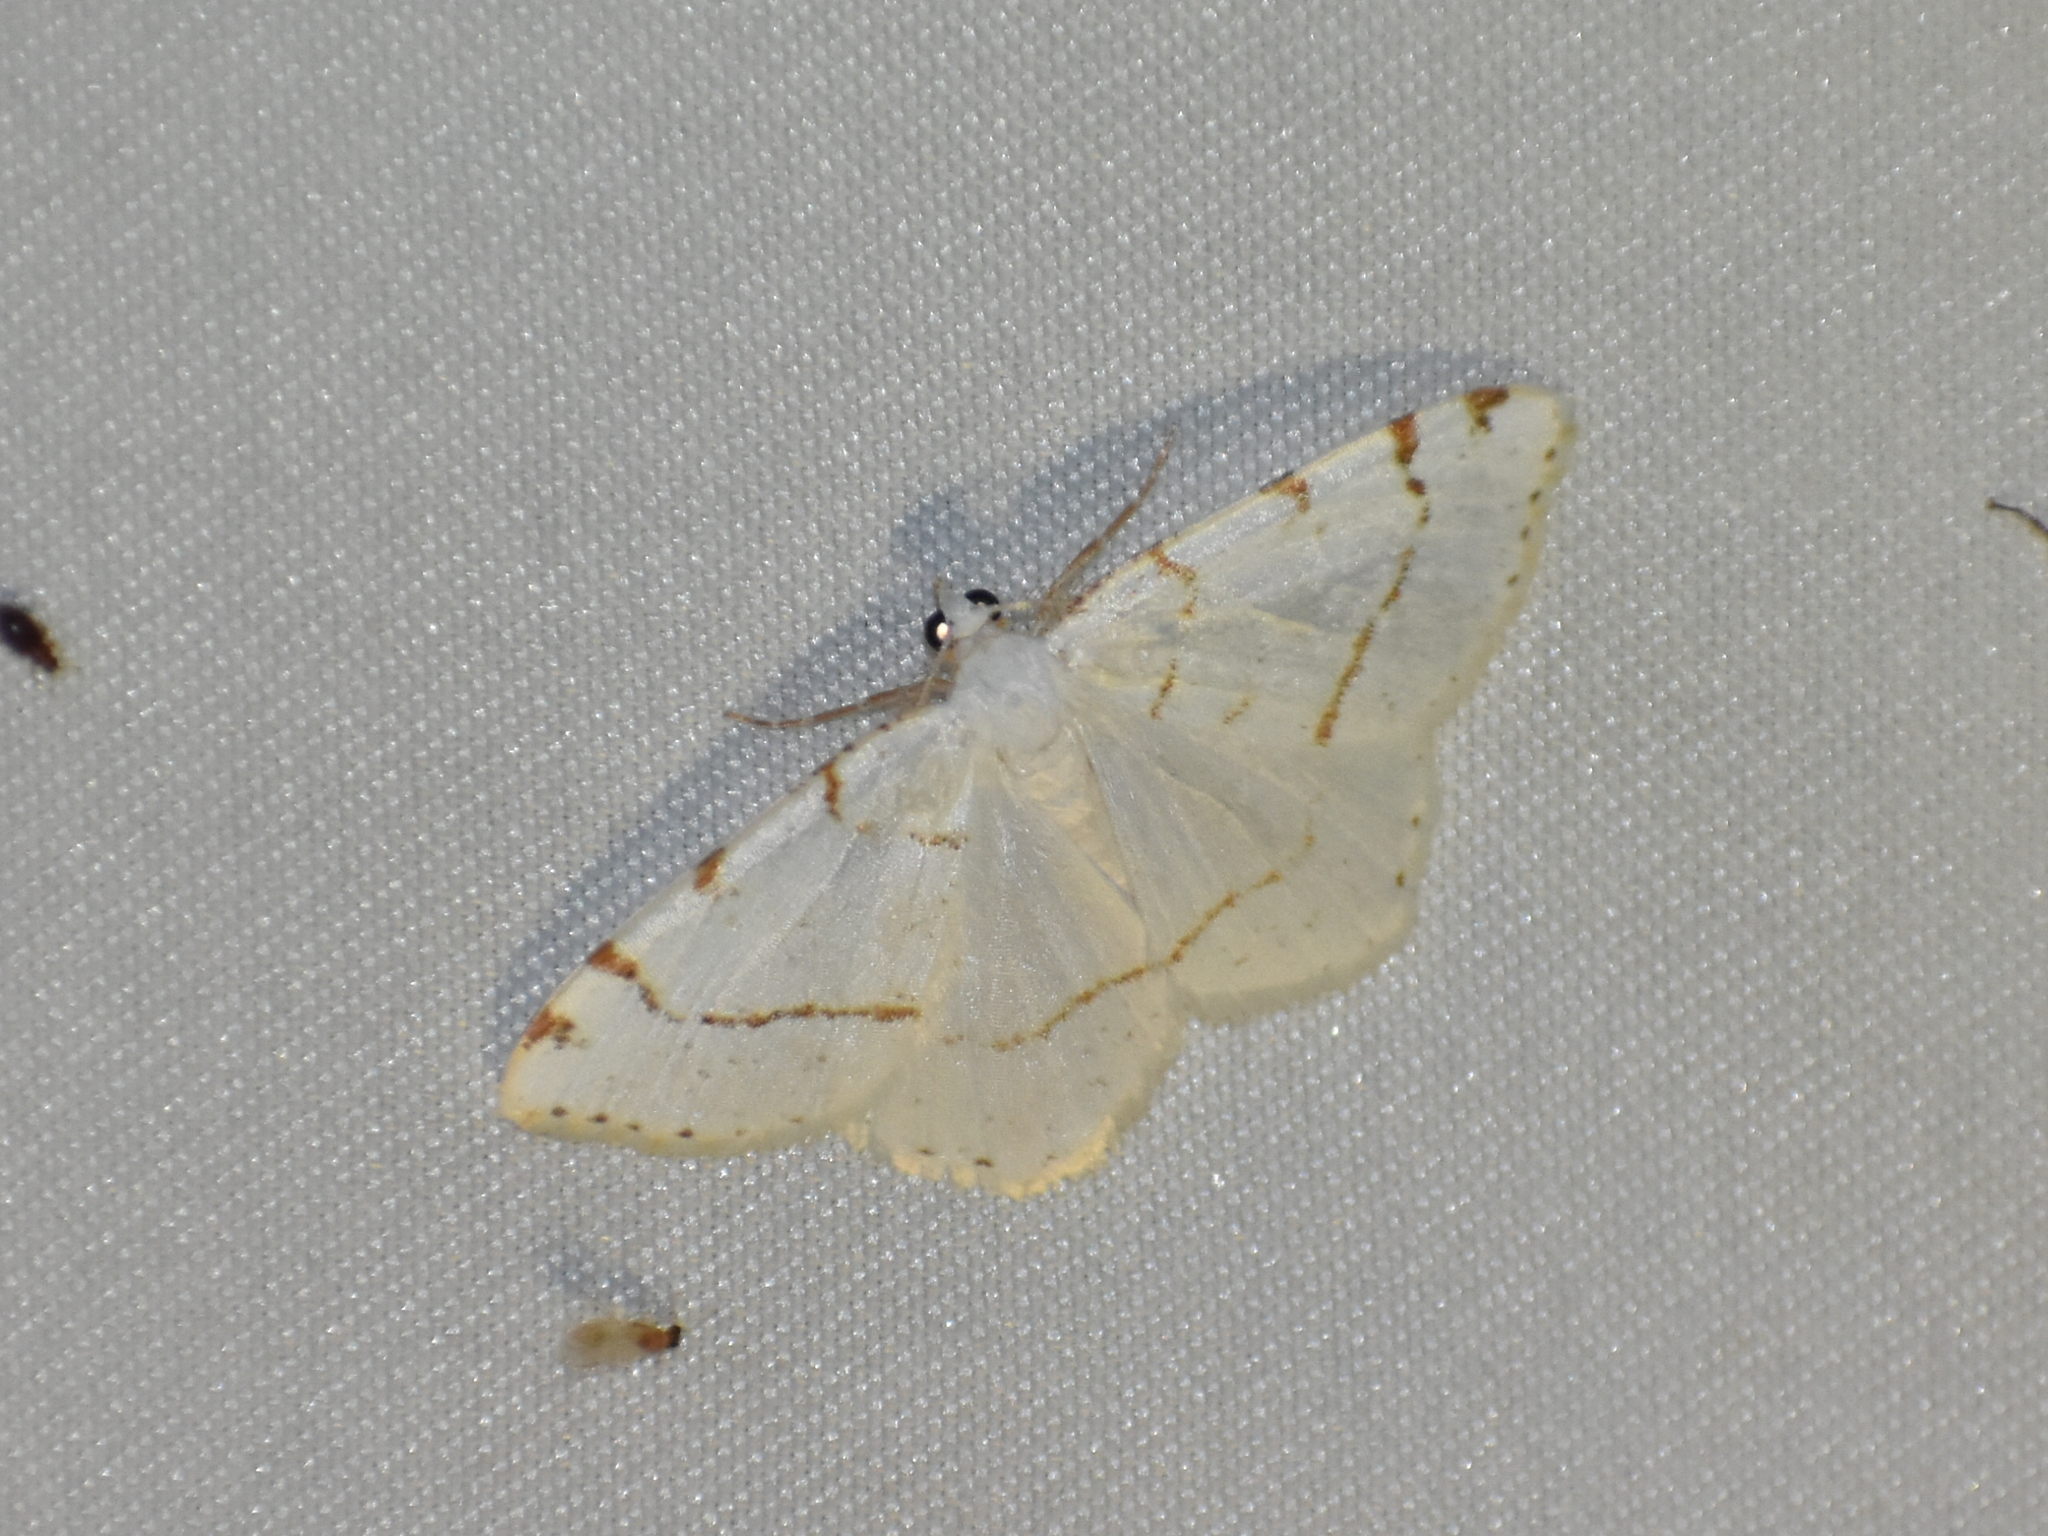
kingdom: Animalia
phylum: Arthropoda
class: Insecta
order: Lepidoptera
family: Geometridae
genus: Macaria
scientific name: Macaria pustularia
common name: Lesser maple spanworm moth
